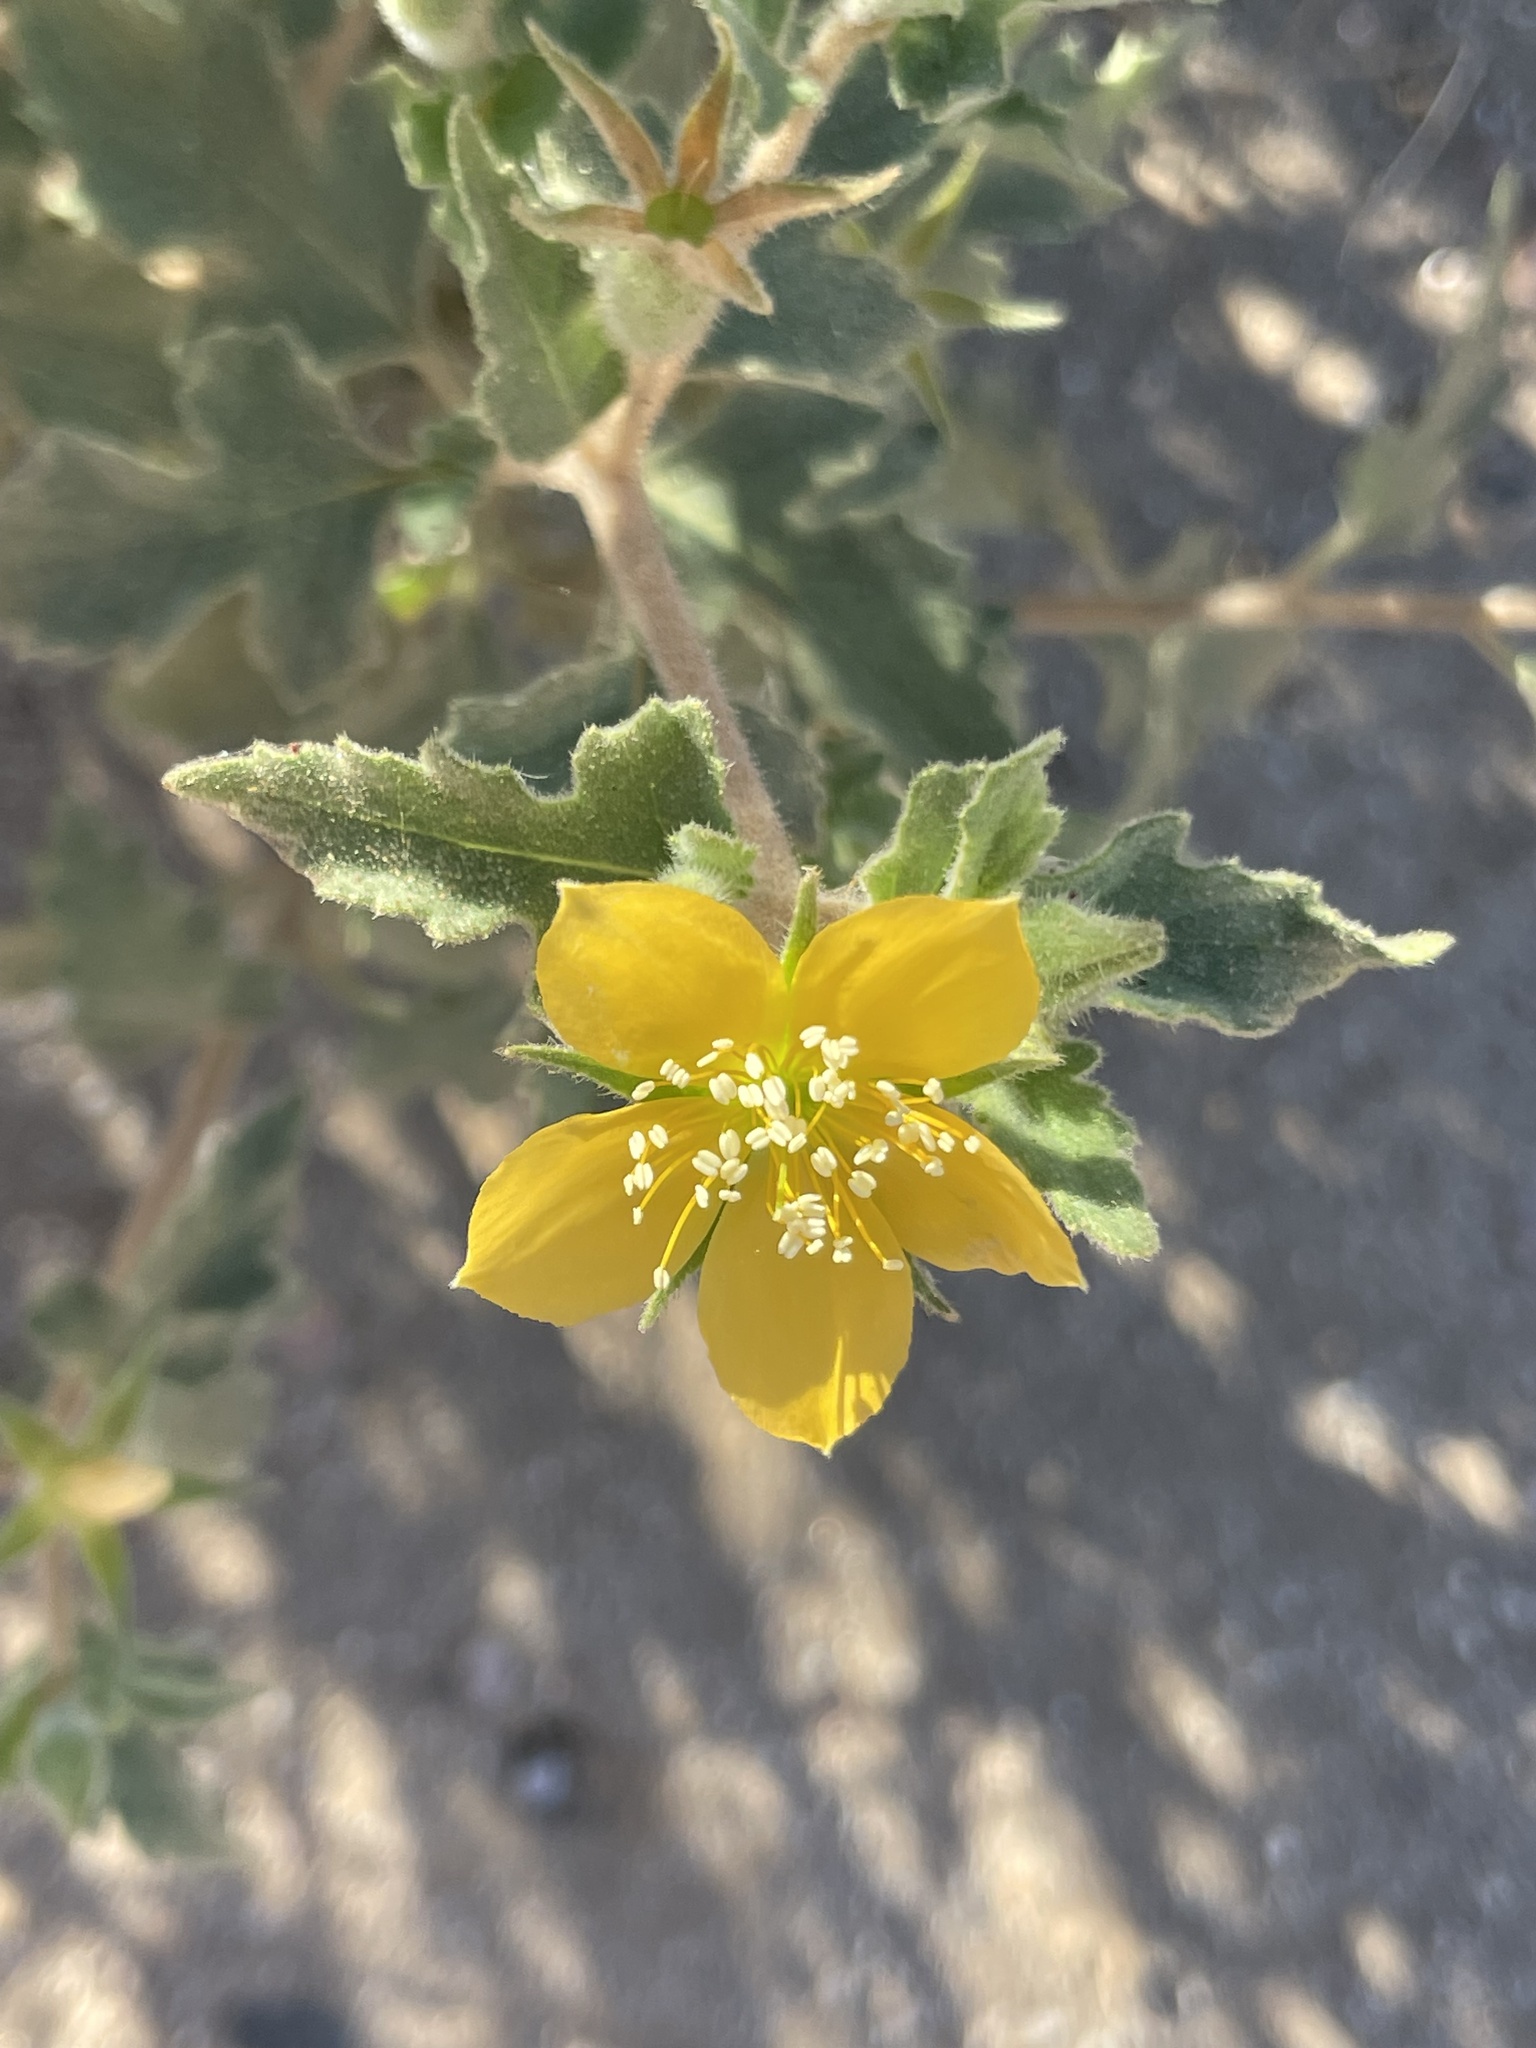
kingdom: Plantae
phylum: Tracheophyta
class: Magnoliopsida
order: Cornales
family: Loasaceae
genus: Mentzelia
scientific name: Mentzelia adhaerens
